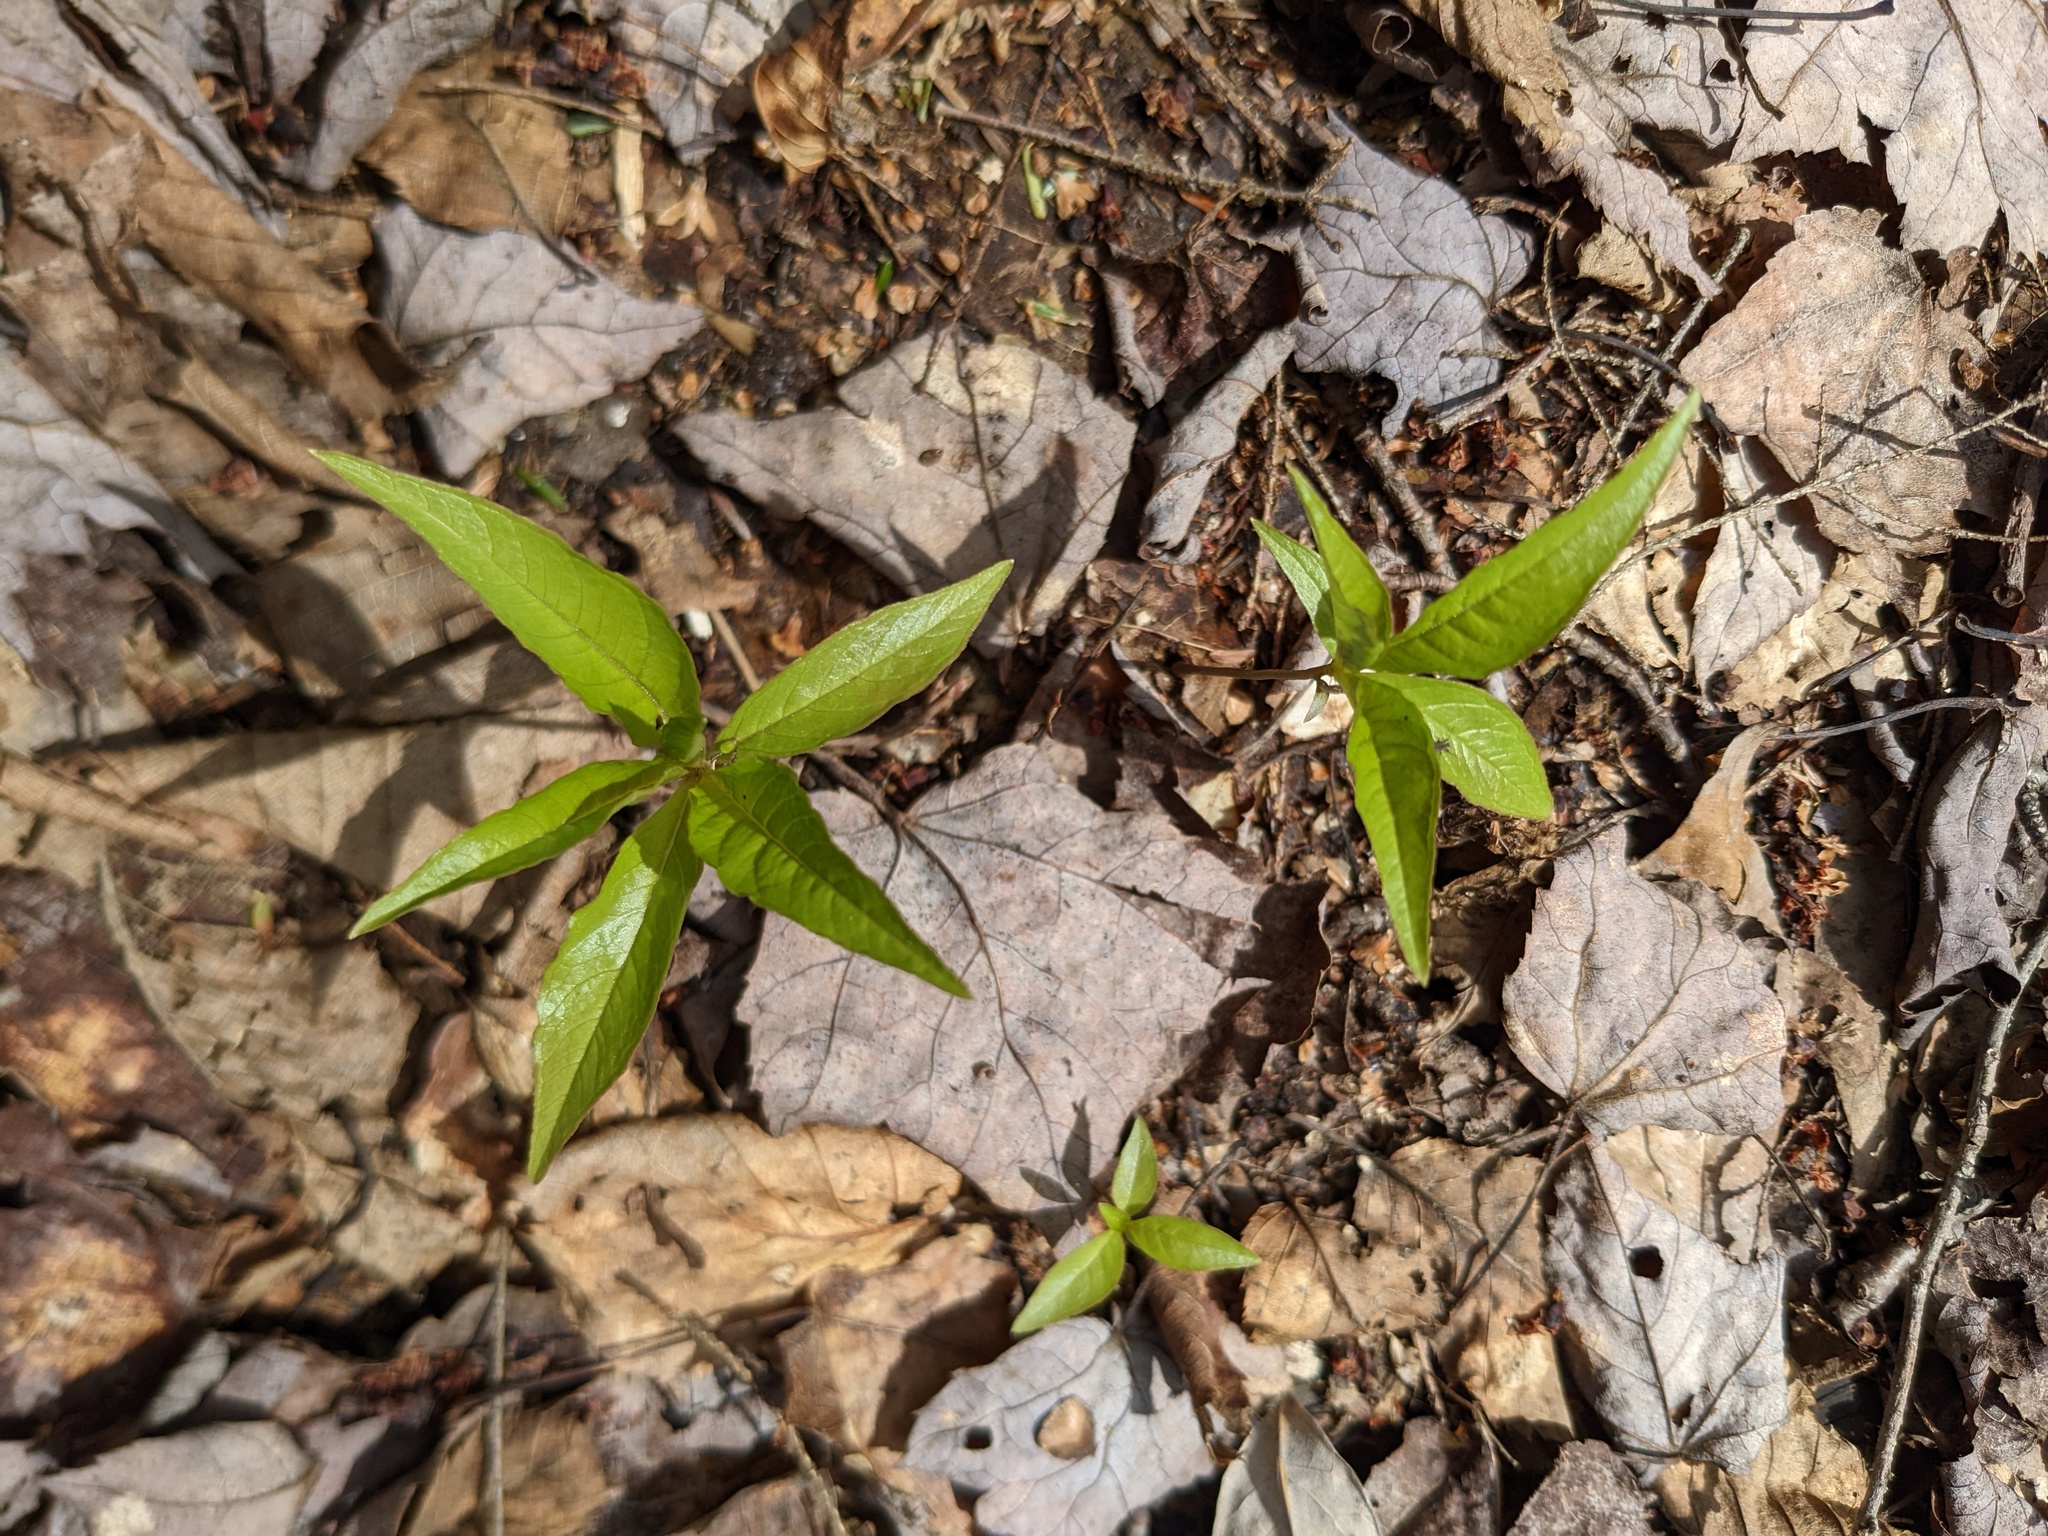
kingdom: Plantae
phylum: Tracheophyta
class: Magnoliopsida
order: Ericales
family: Primulaceae
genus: Lysimachia
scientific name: Lysimachia borealis
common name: American starflower
